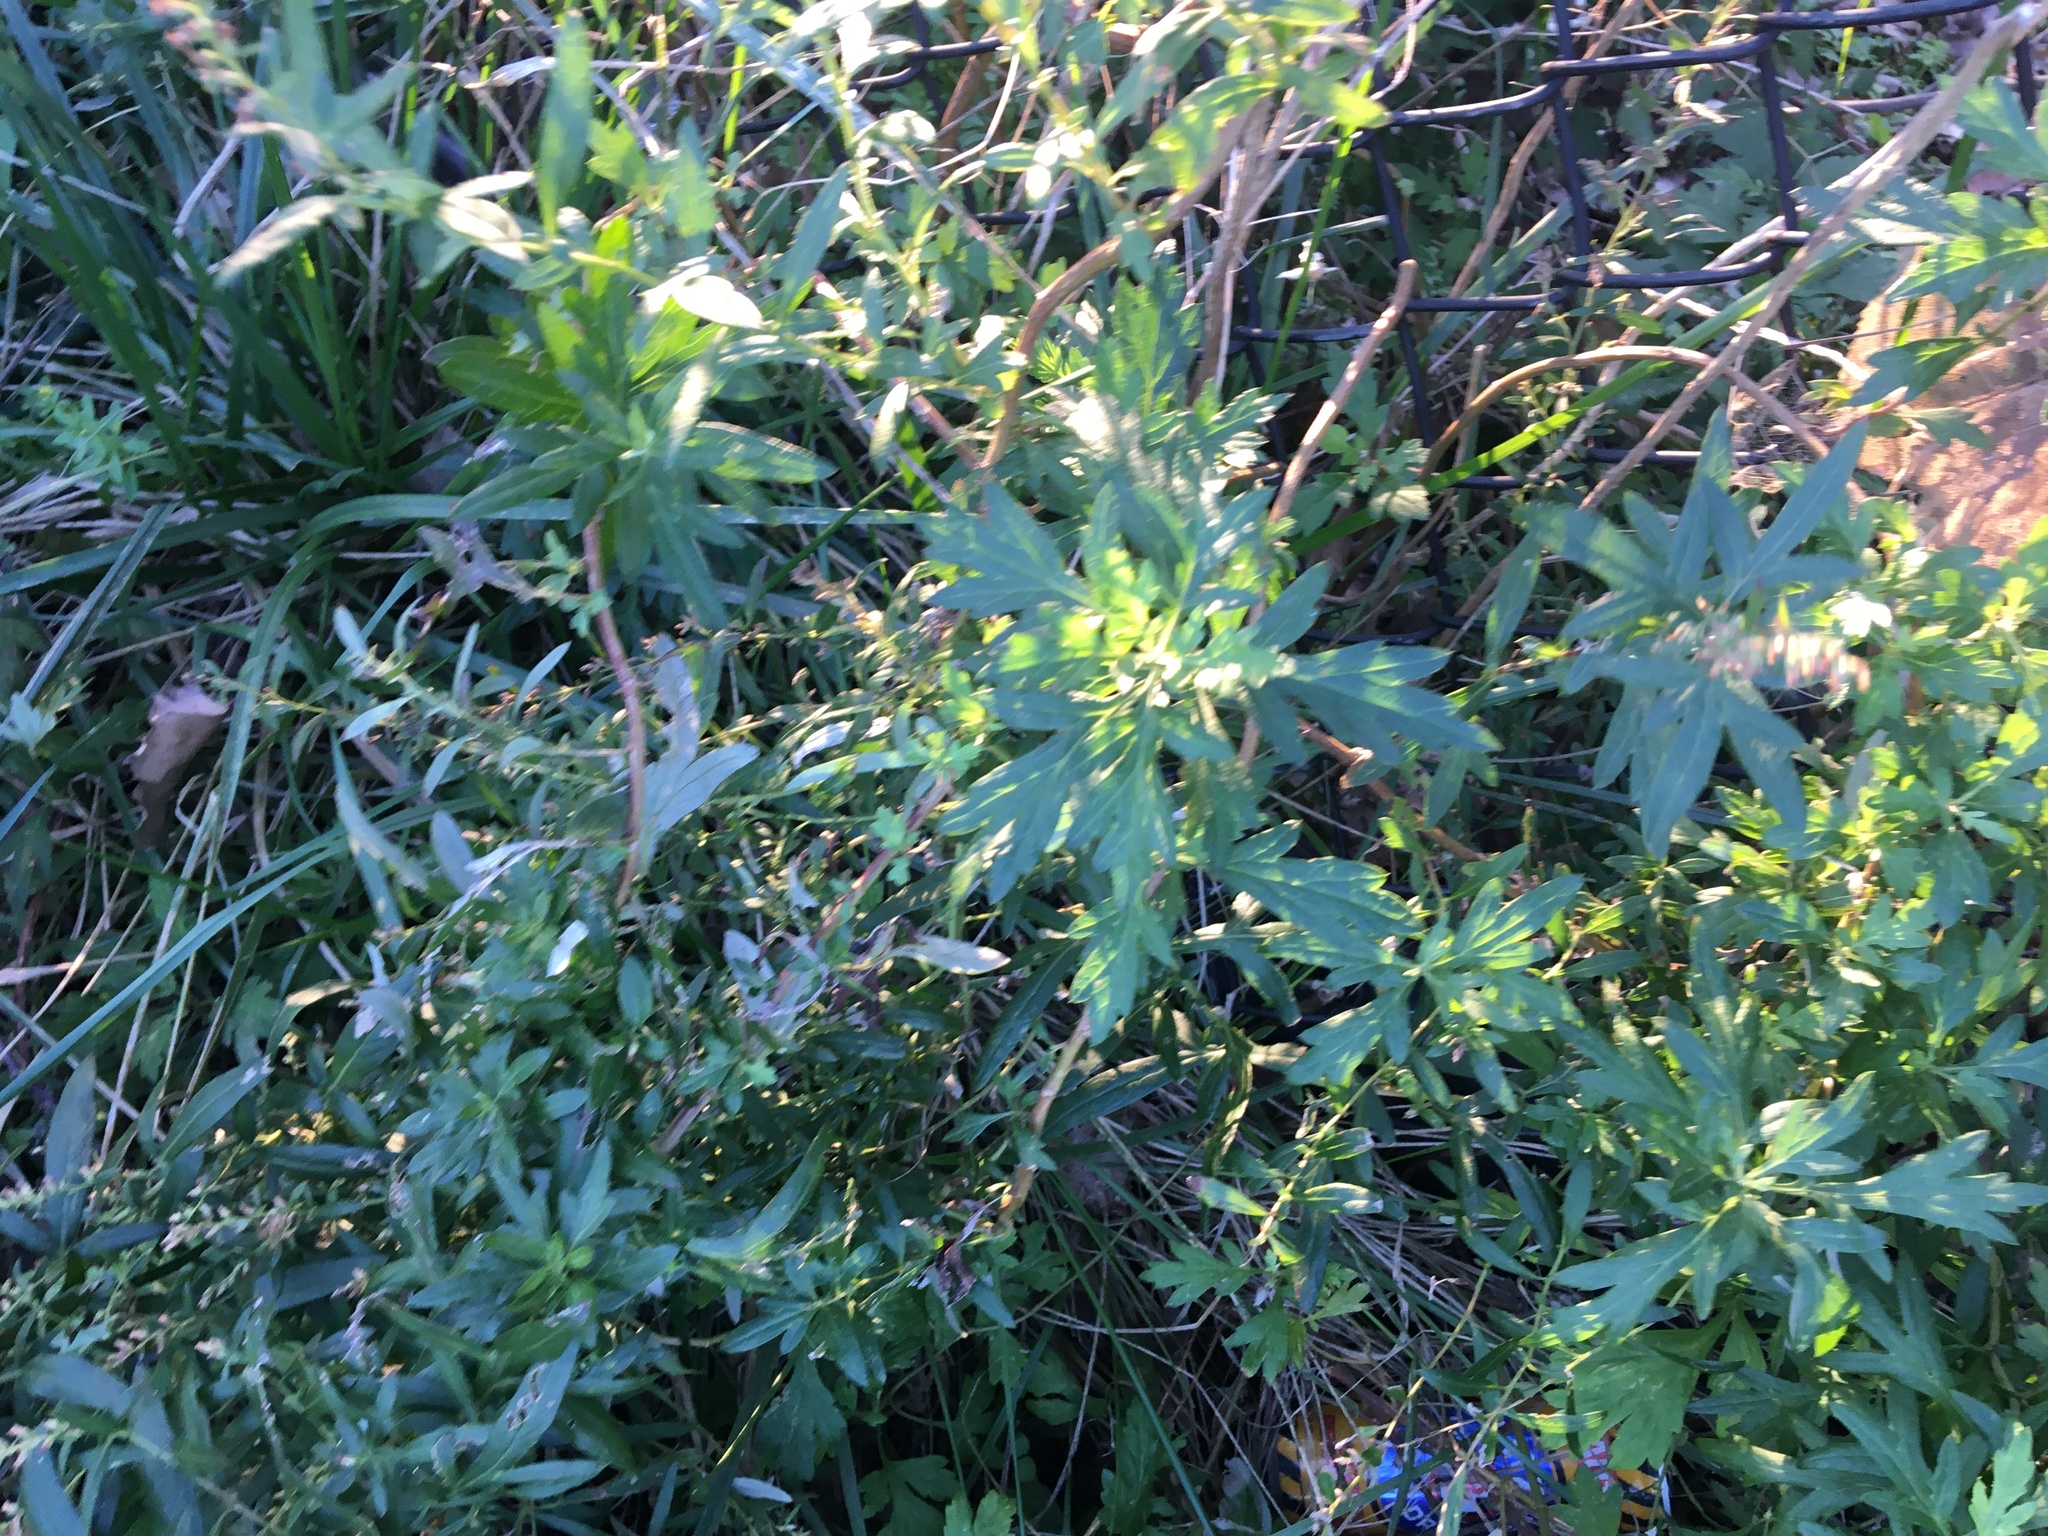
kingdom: Plantae
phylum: Tracheophyta
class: Magnoliopsida
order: Asterales
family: Asteraceae
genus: Artemisia
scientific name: Artemisia vulgaris
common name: Mugwort
